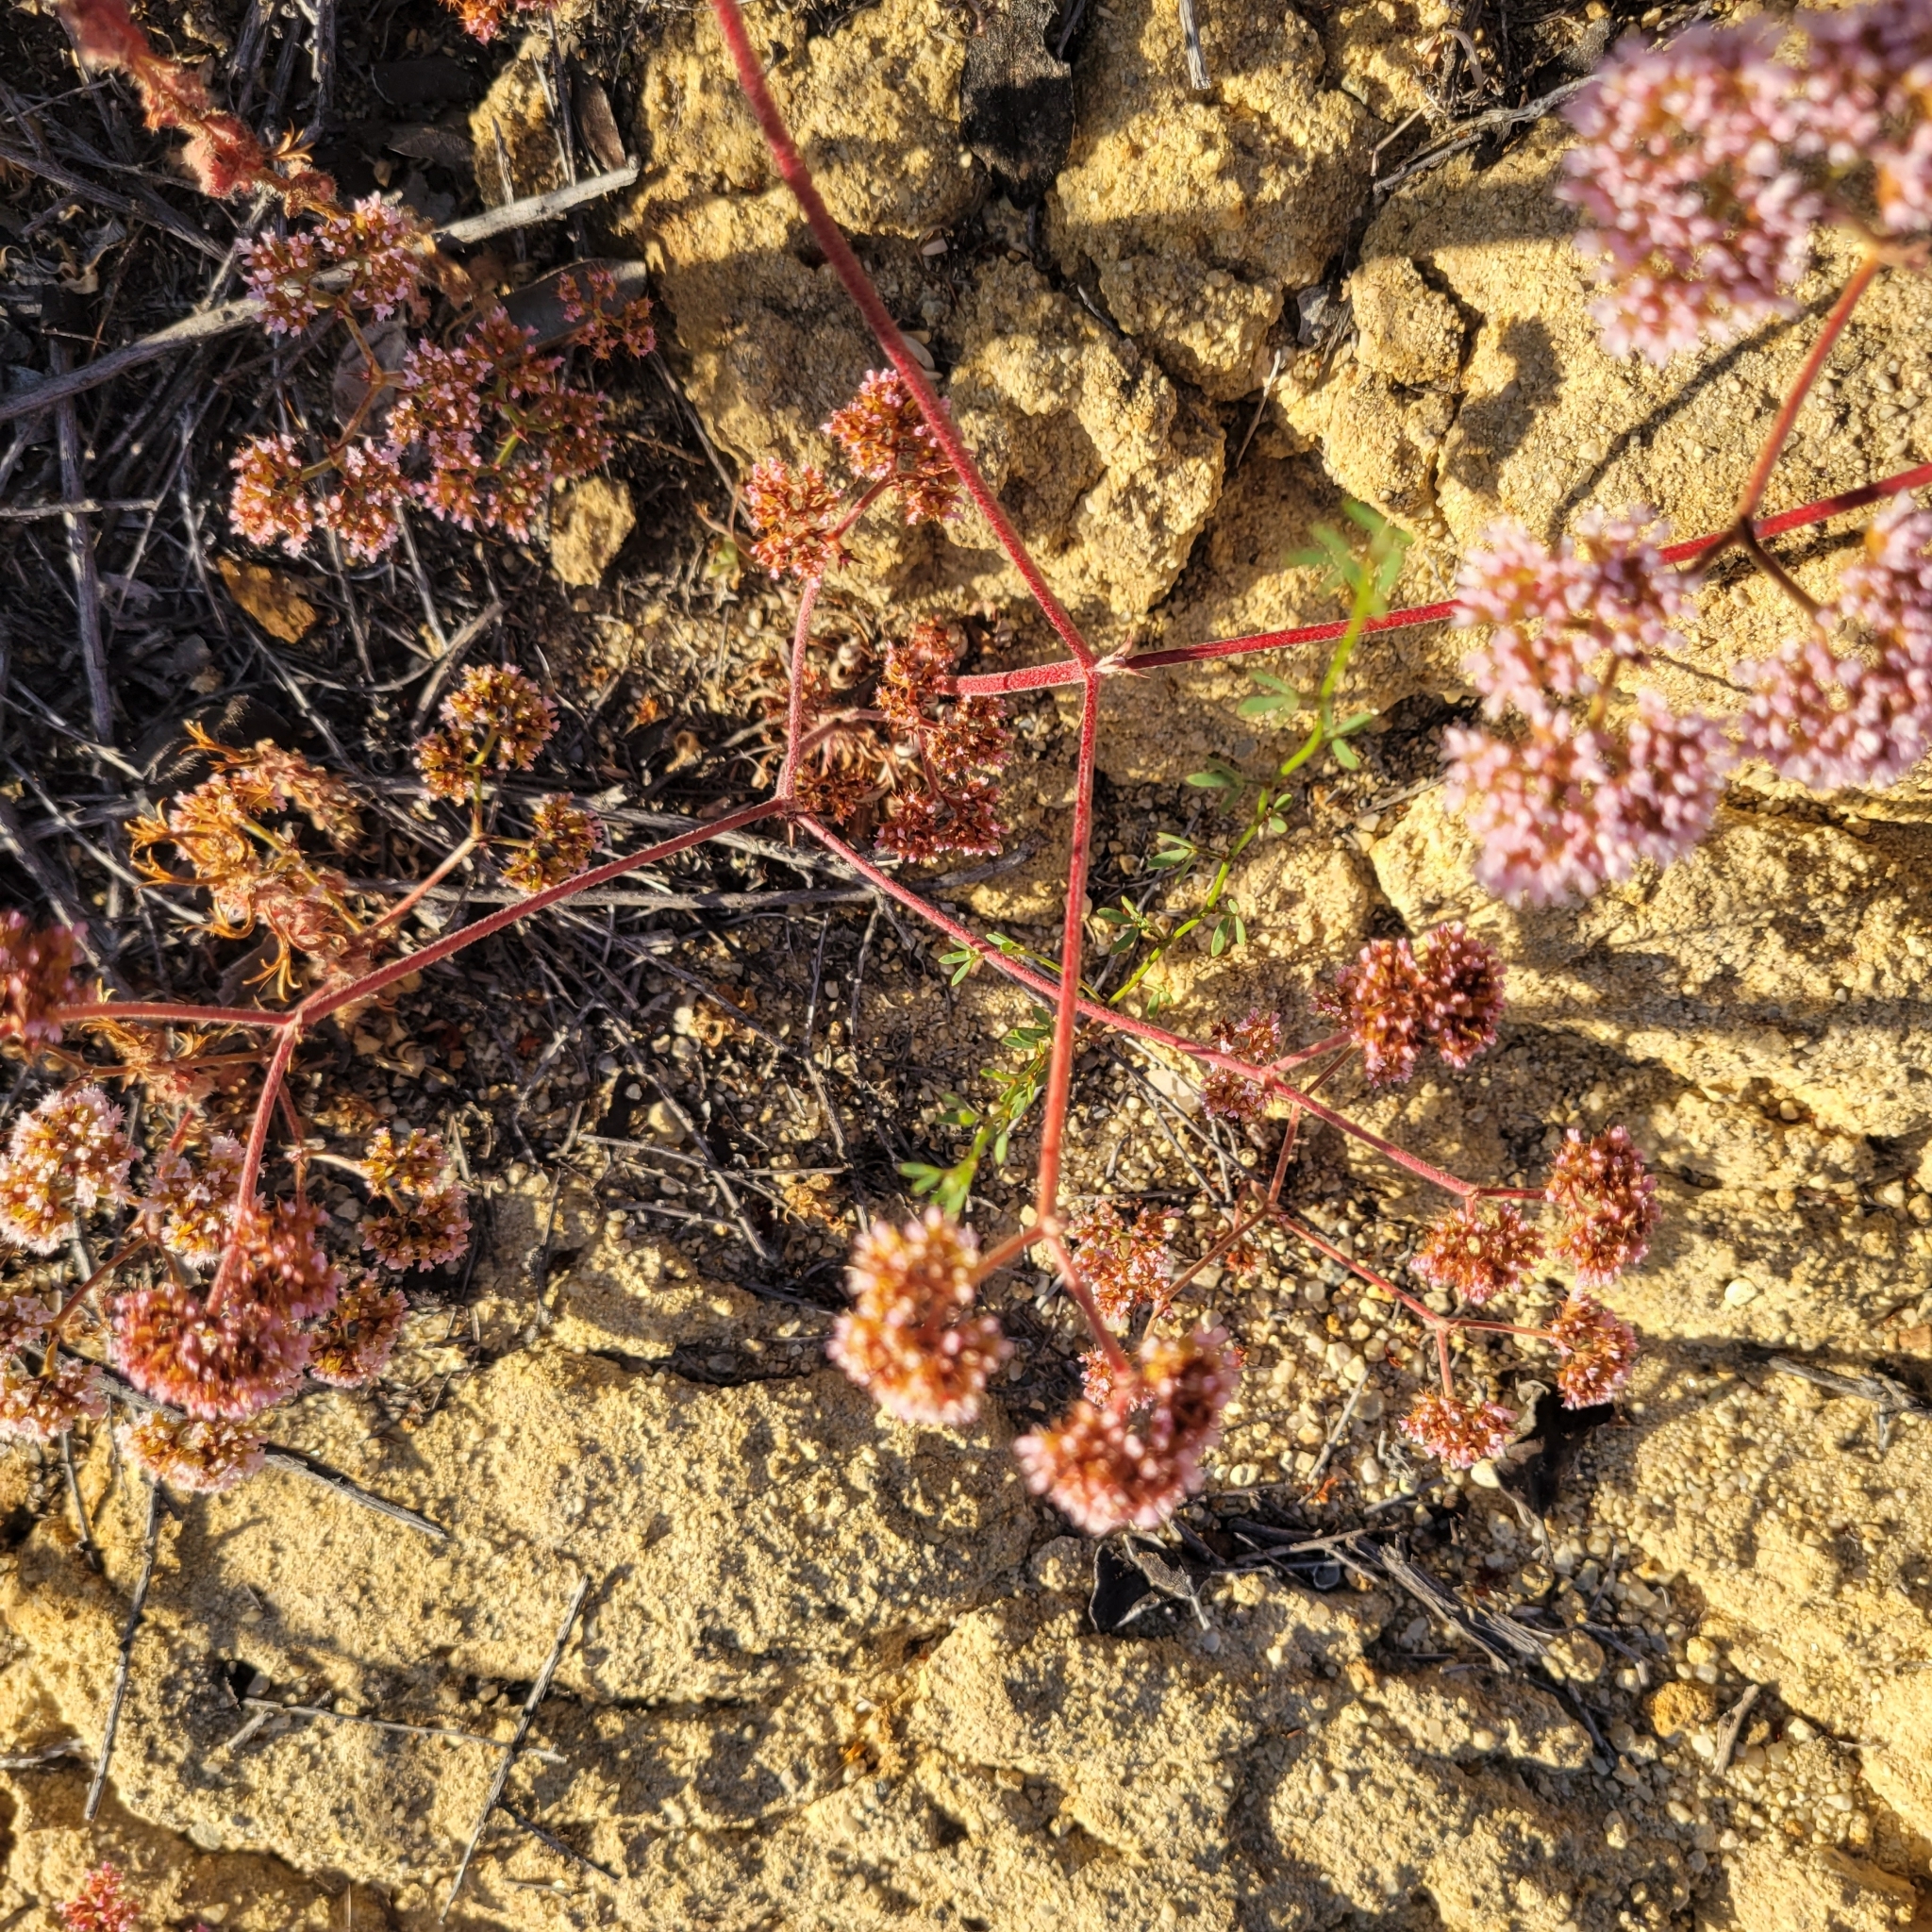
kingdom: Plantae
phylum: Tracheophyta
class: Magnoliopsida
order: Caryophyllales
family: Polygonaceae
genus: Chorizanthe
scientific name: Chorizanthe staticoides
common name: Turkish rugging
